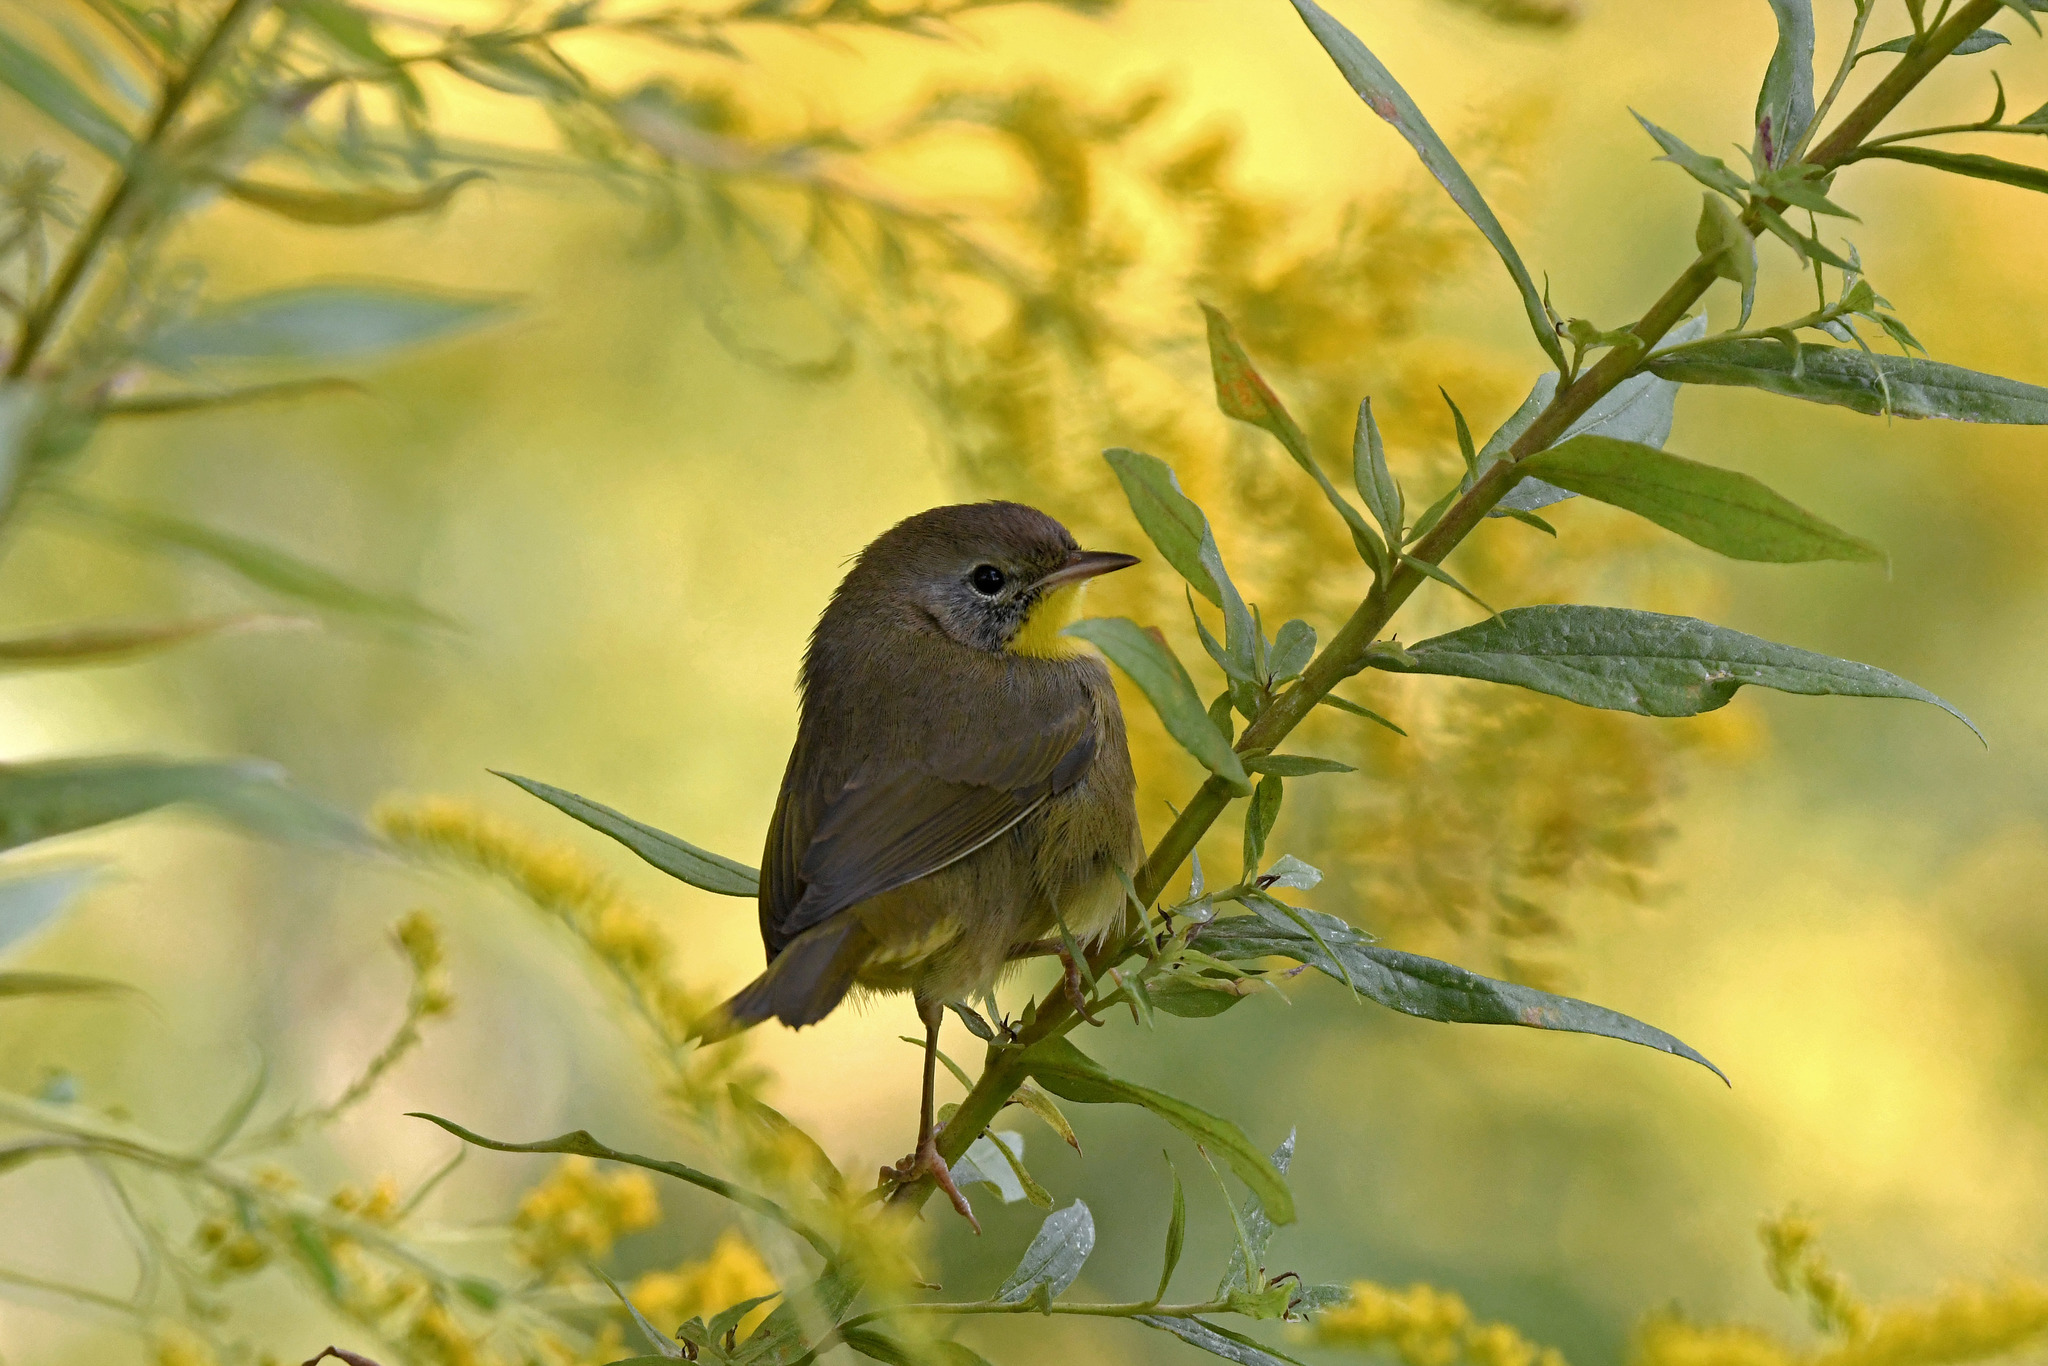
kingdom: Animalia
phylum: Chordata
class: Aves
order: Passeriformes
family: Parulidae
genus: Geothlypis
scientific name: Geothlypis trichas
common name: Common yellowthroat
